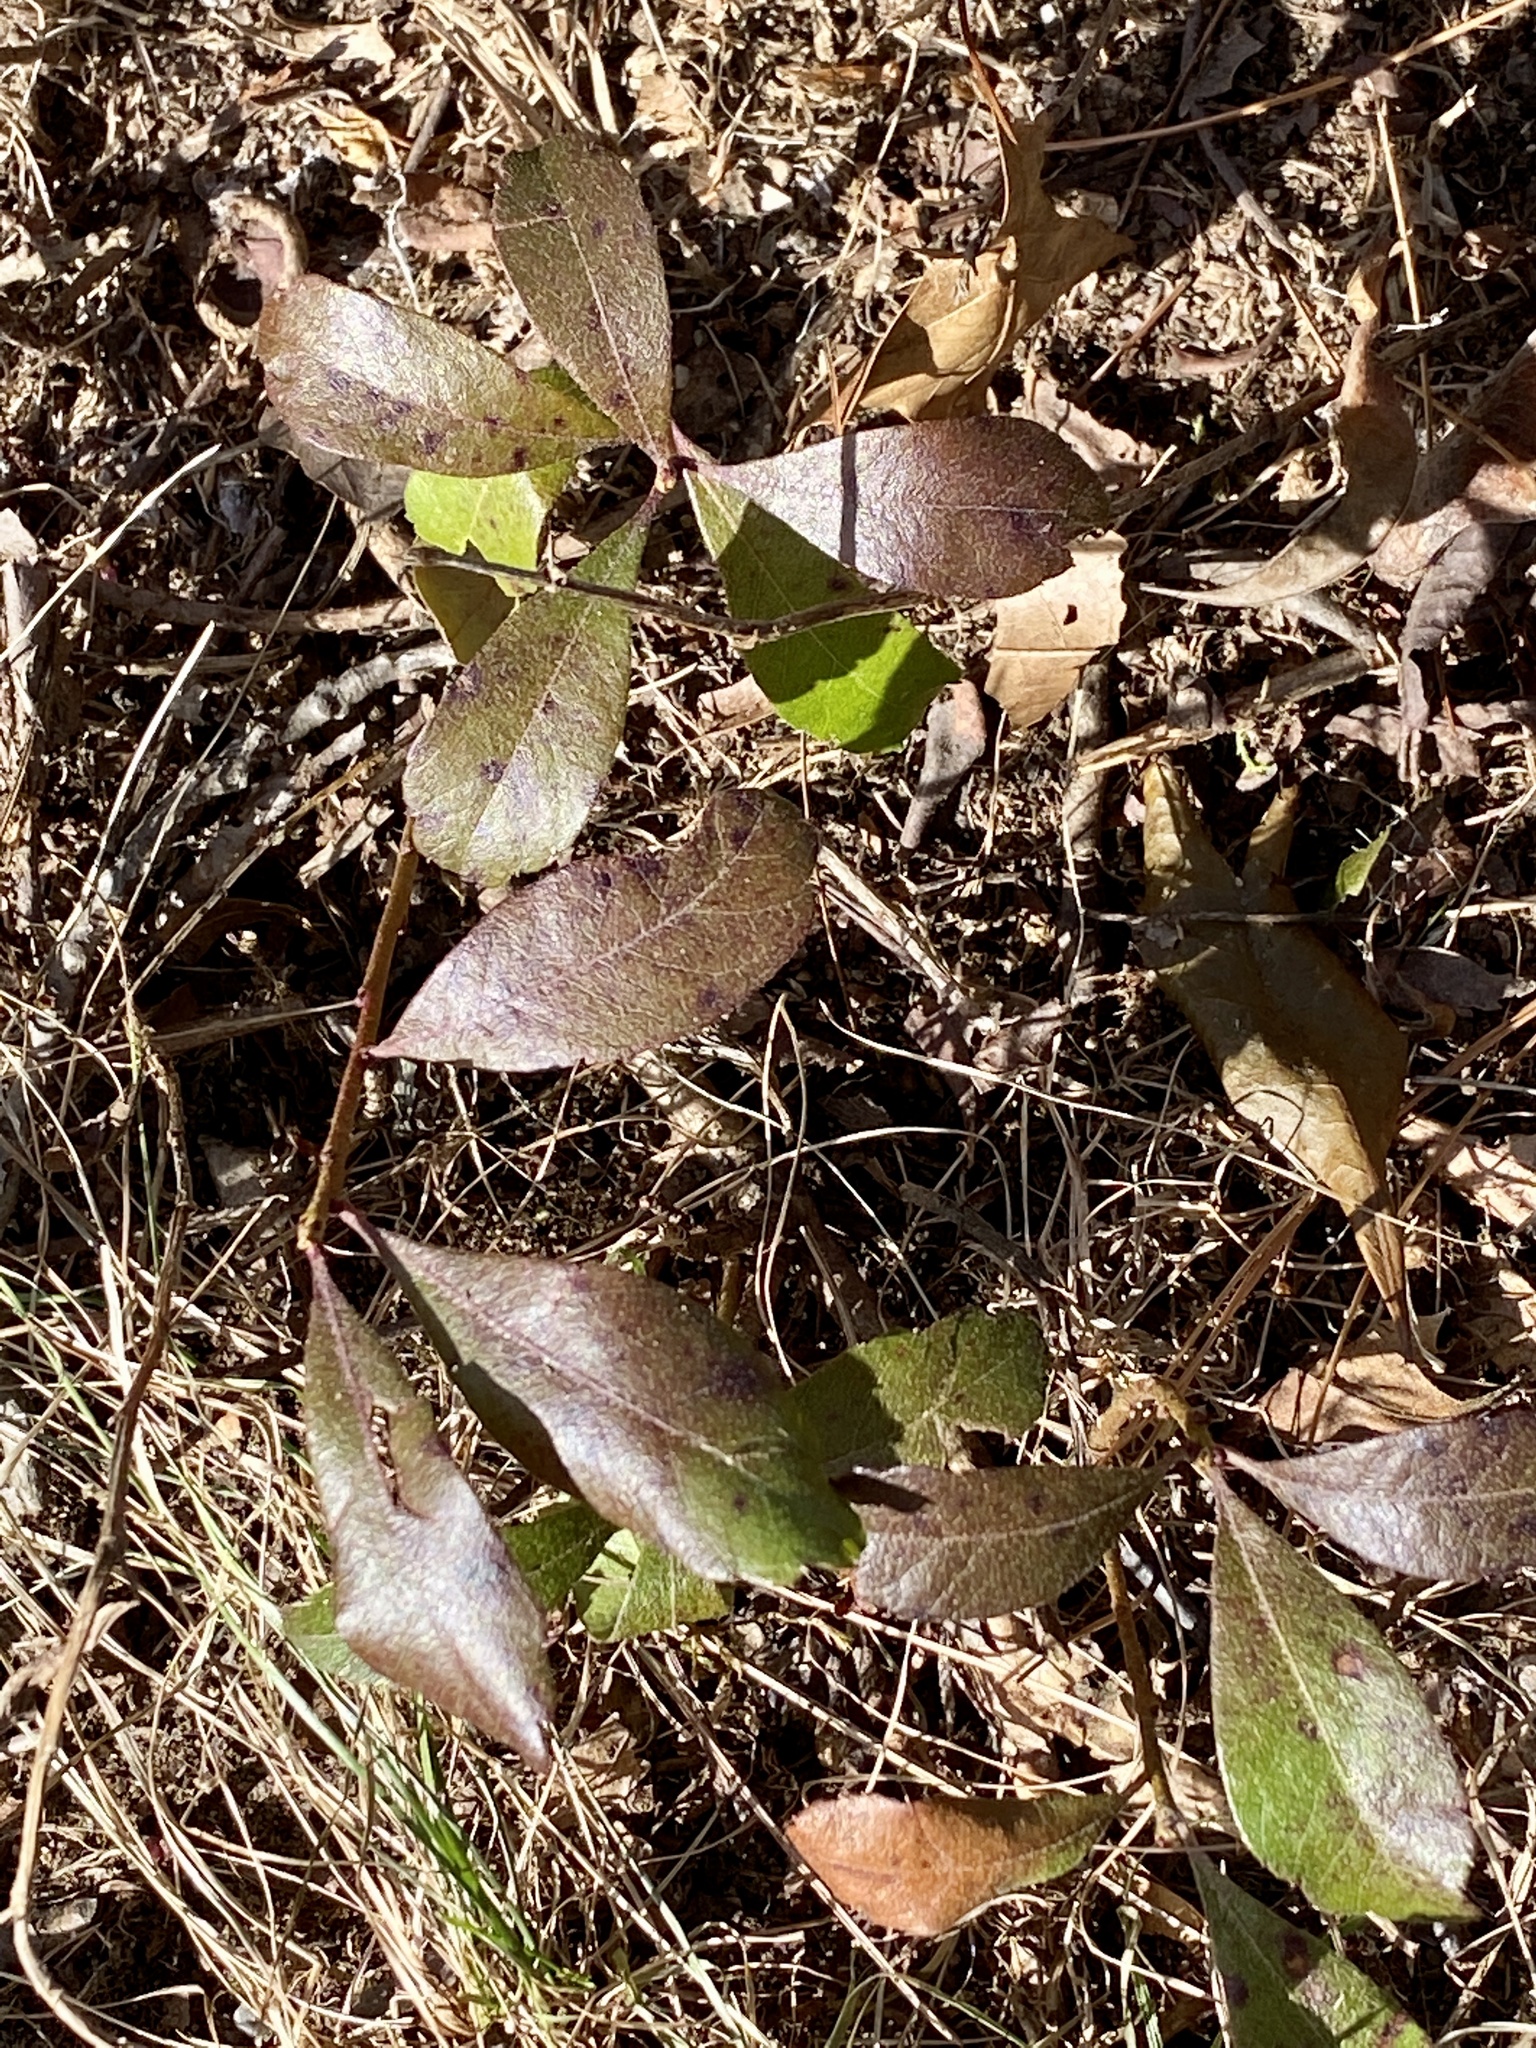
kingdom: Plantae
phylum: Tracheophyta
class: Magnoliopsida
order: Fagales
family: Myricaceae
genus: Morella
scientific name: Morella pensylvanica
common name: Northern bayberry
